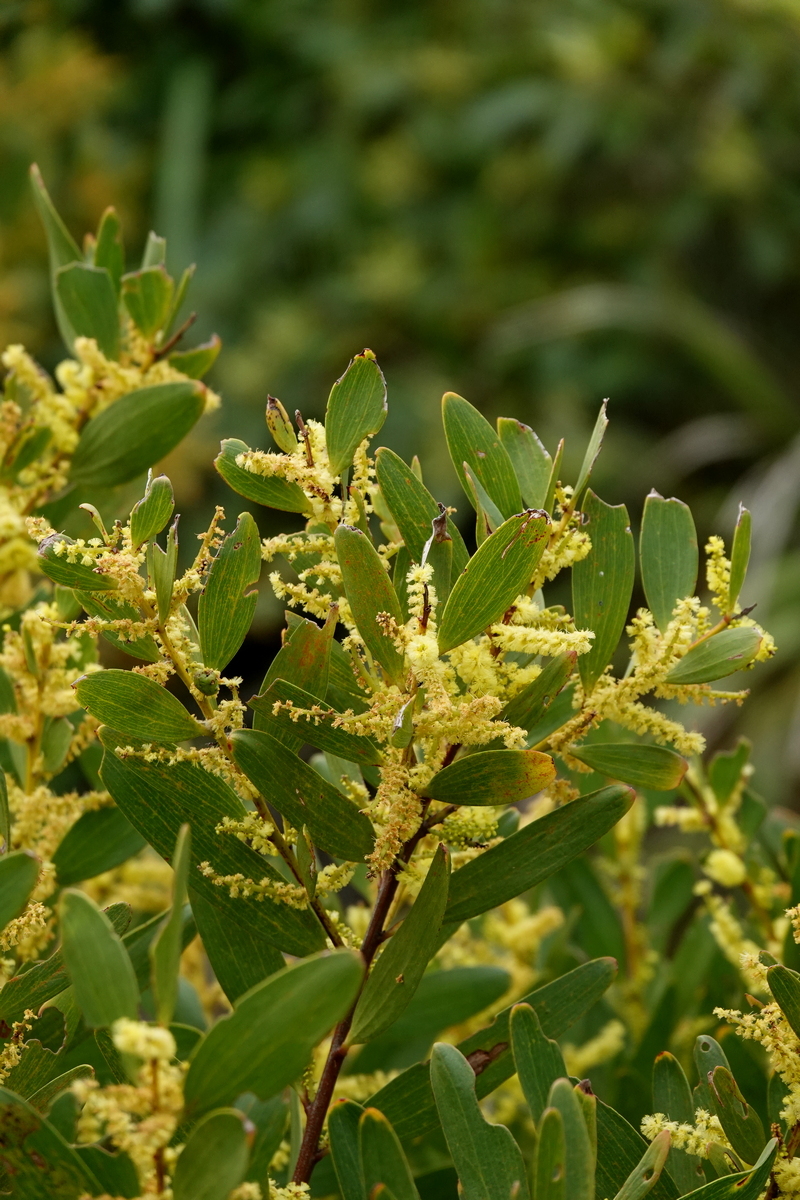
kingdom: Plantae
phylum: Tracheophyta
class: Magnoliopsida
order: Fabales
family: Fabaceae
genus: Acacia
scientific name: Acacia longifolia
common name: Sydney golden wattle
